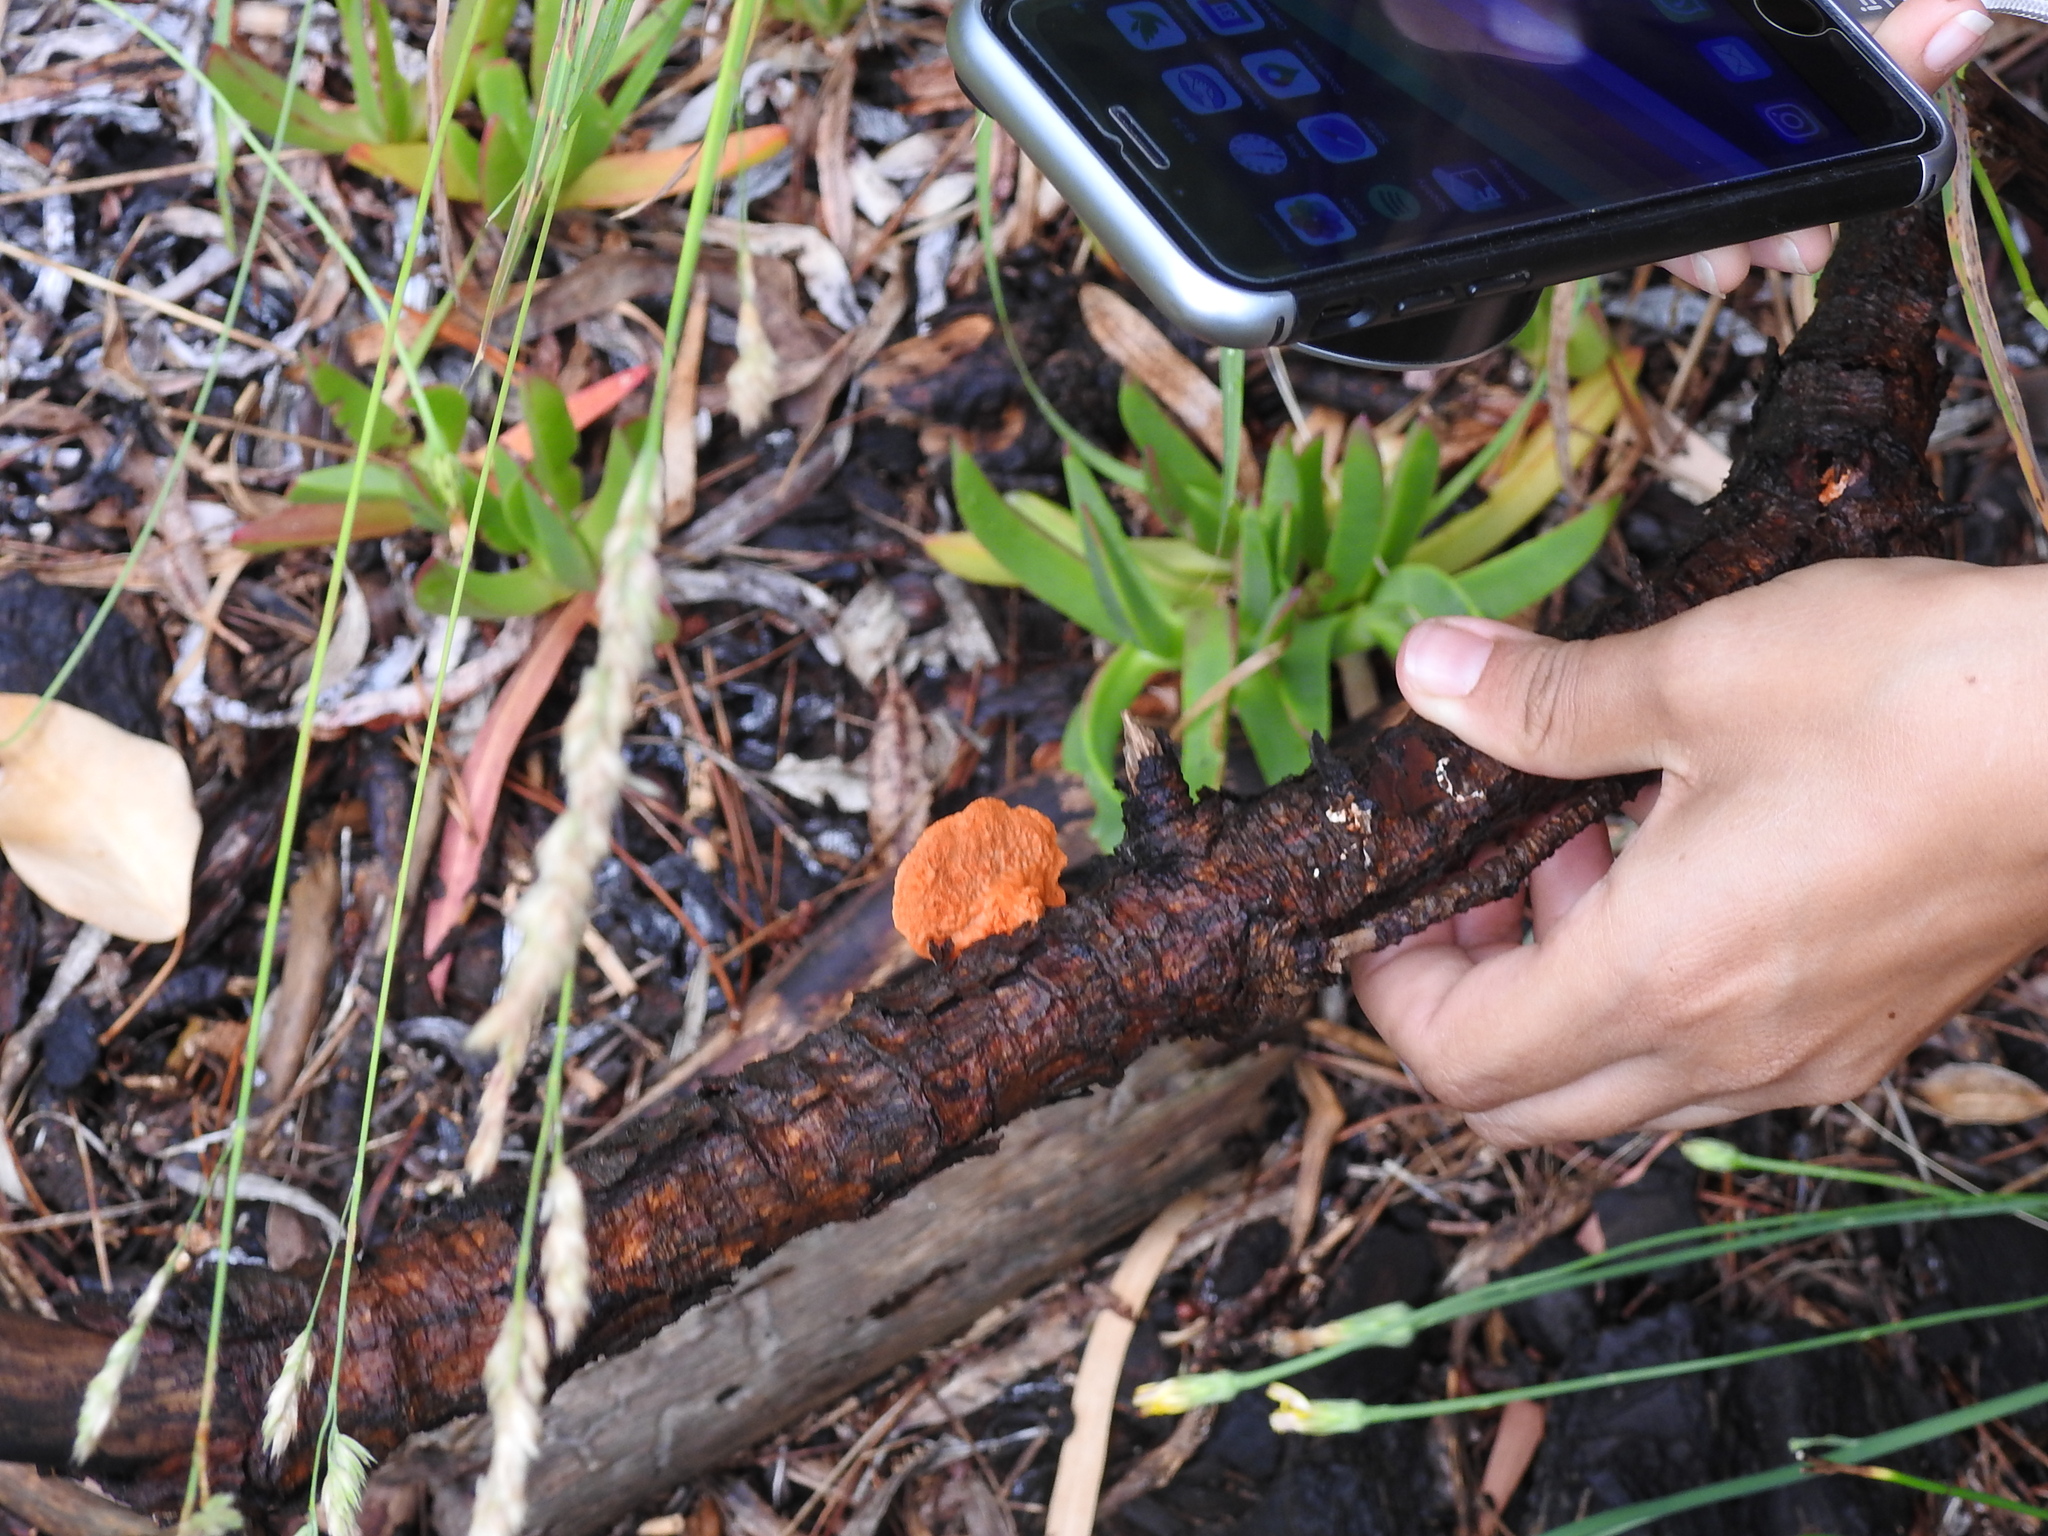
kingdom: Fungi
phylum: Basidiomycota
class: Agaricomycetes
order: Polyporales
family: Polyporaceae
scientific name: Polyporaceae
